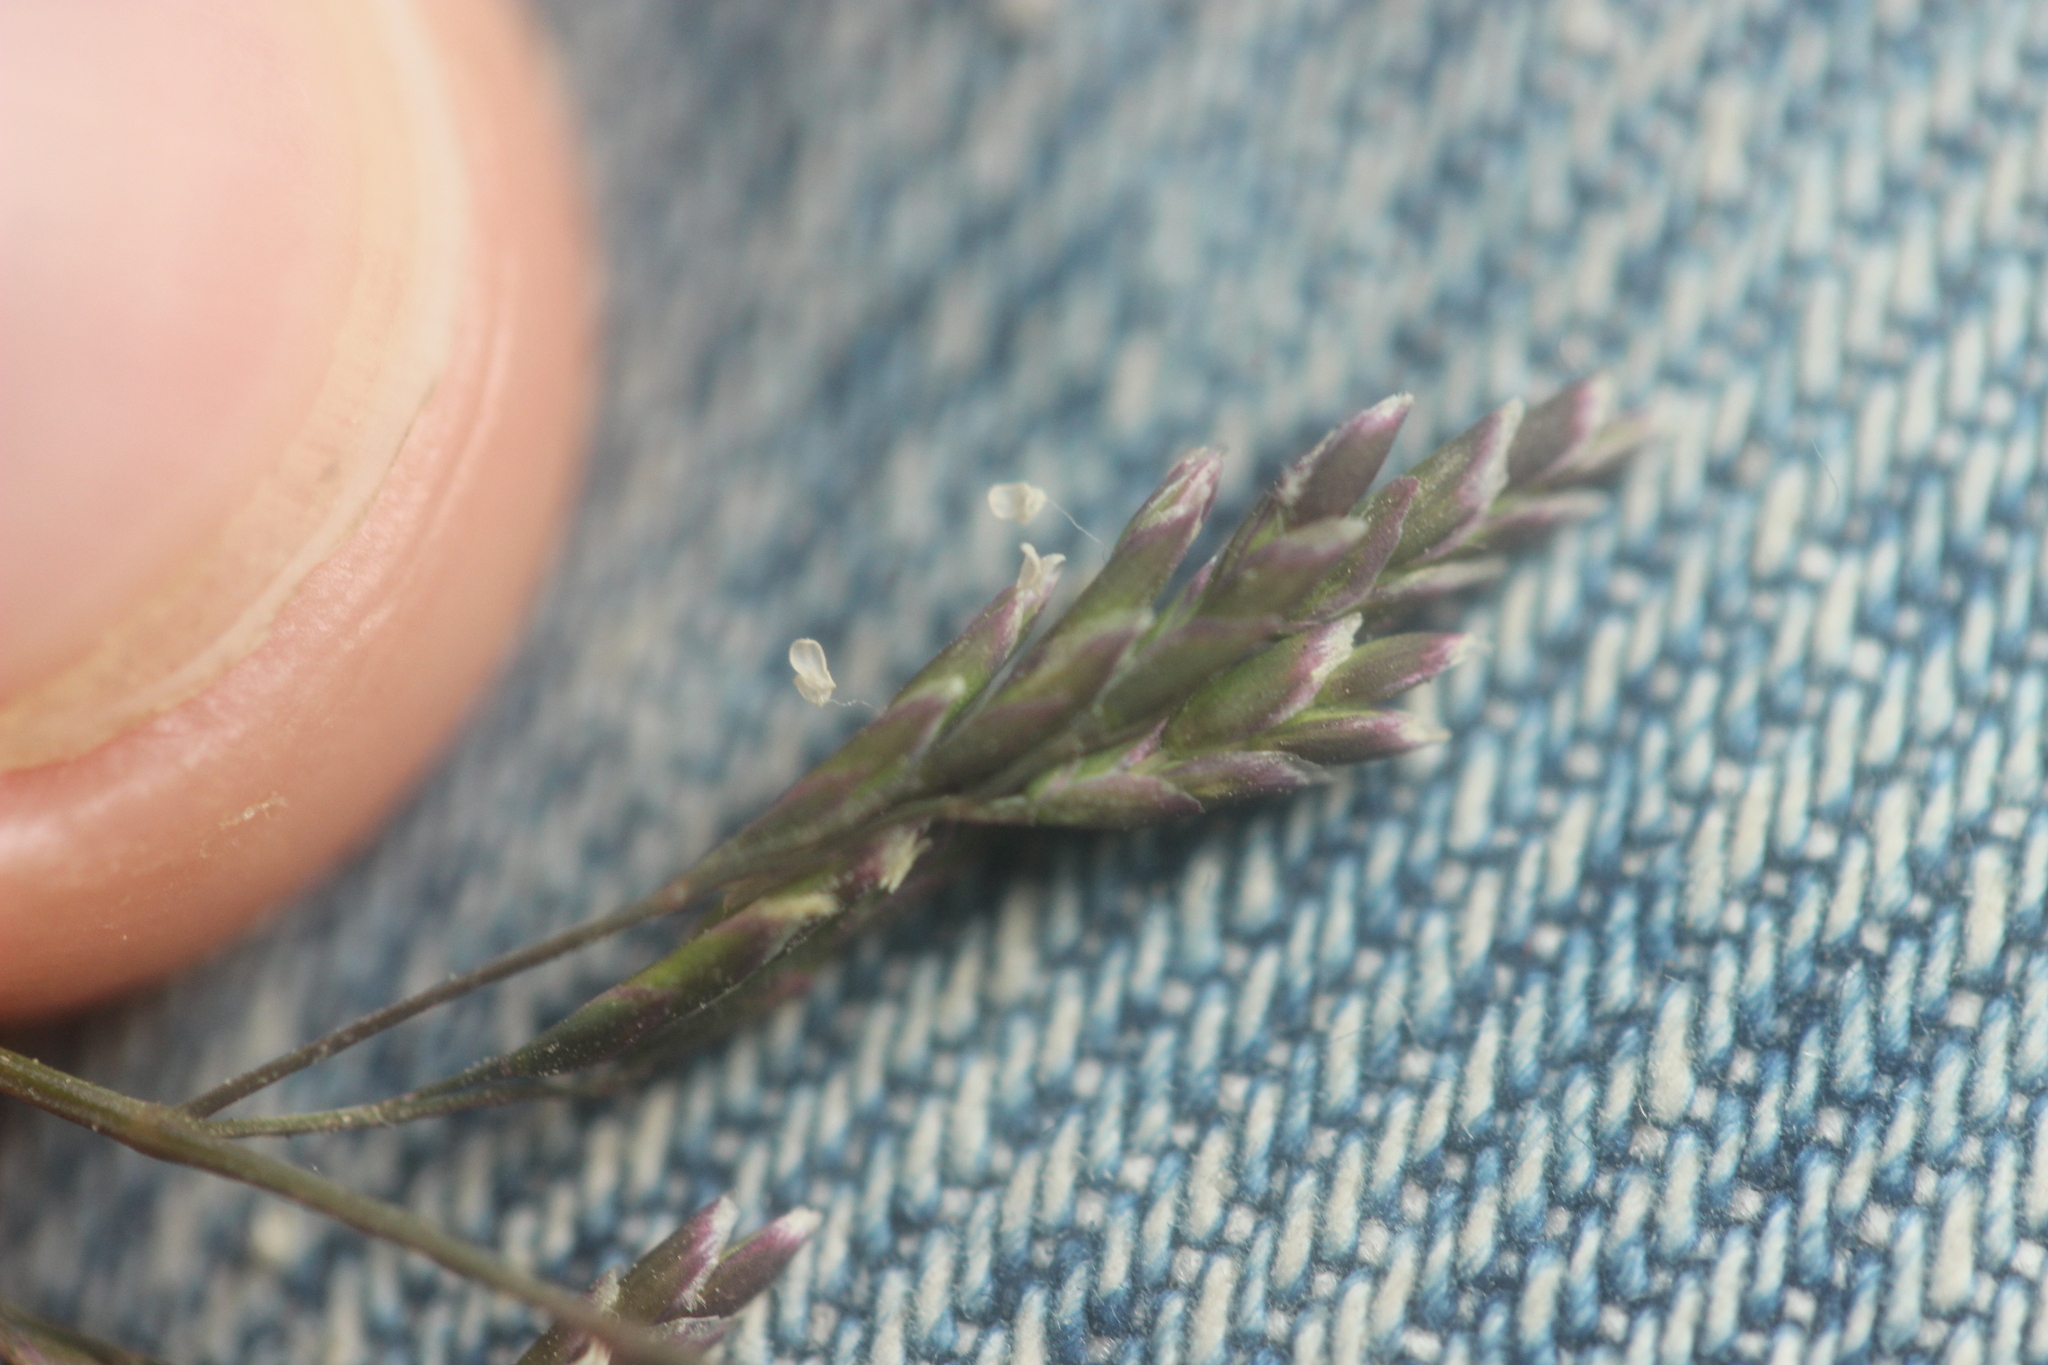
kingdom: Plantae
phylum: Tracheophyta
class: Liliopsida
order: Poales
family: Poaceae
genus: Poa
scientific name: Poa annua
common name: Annual bluegrass
